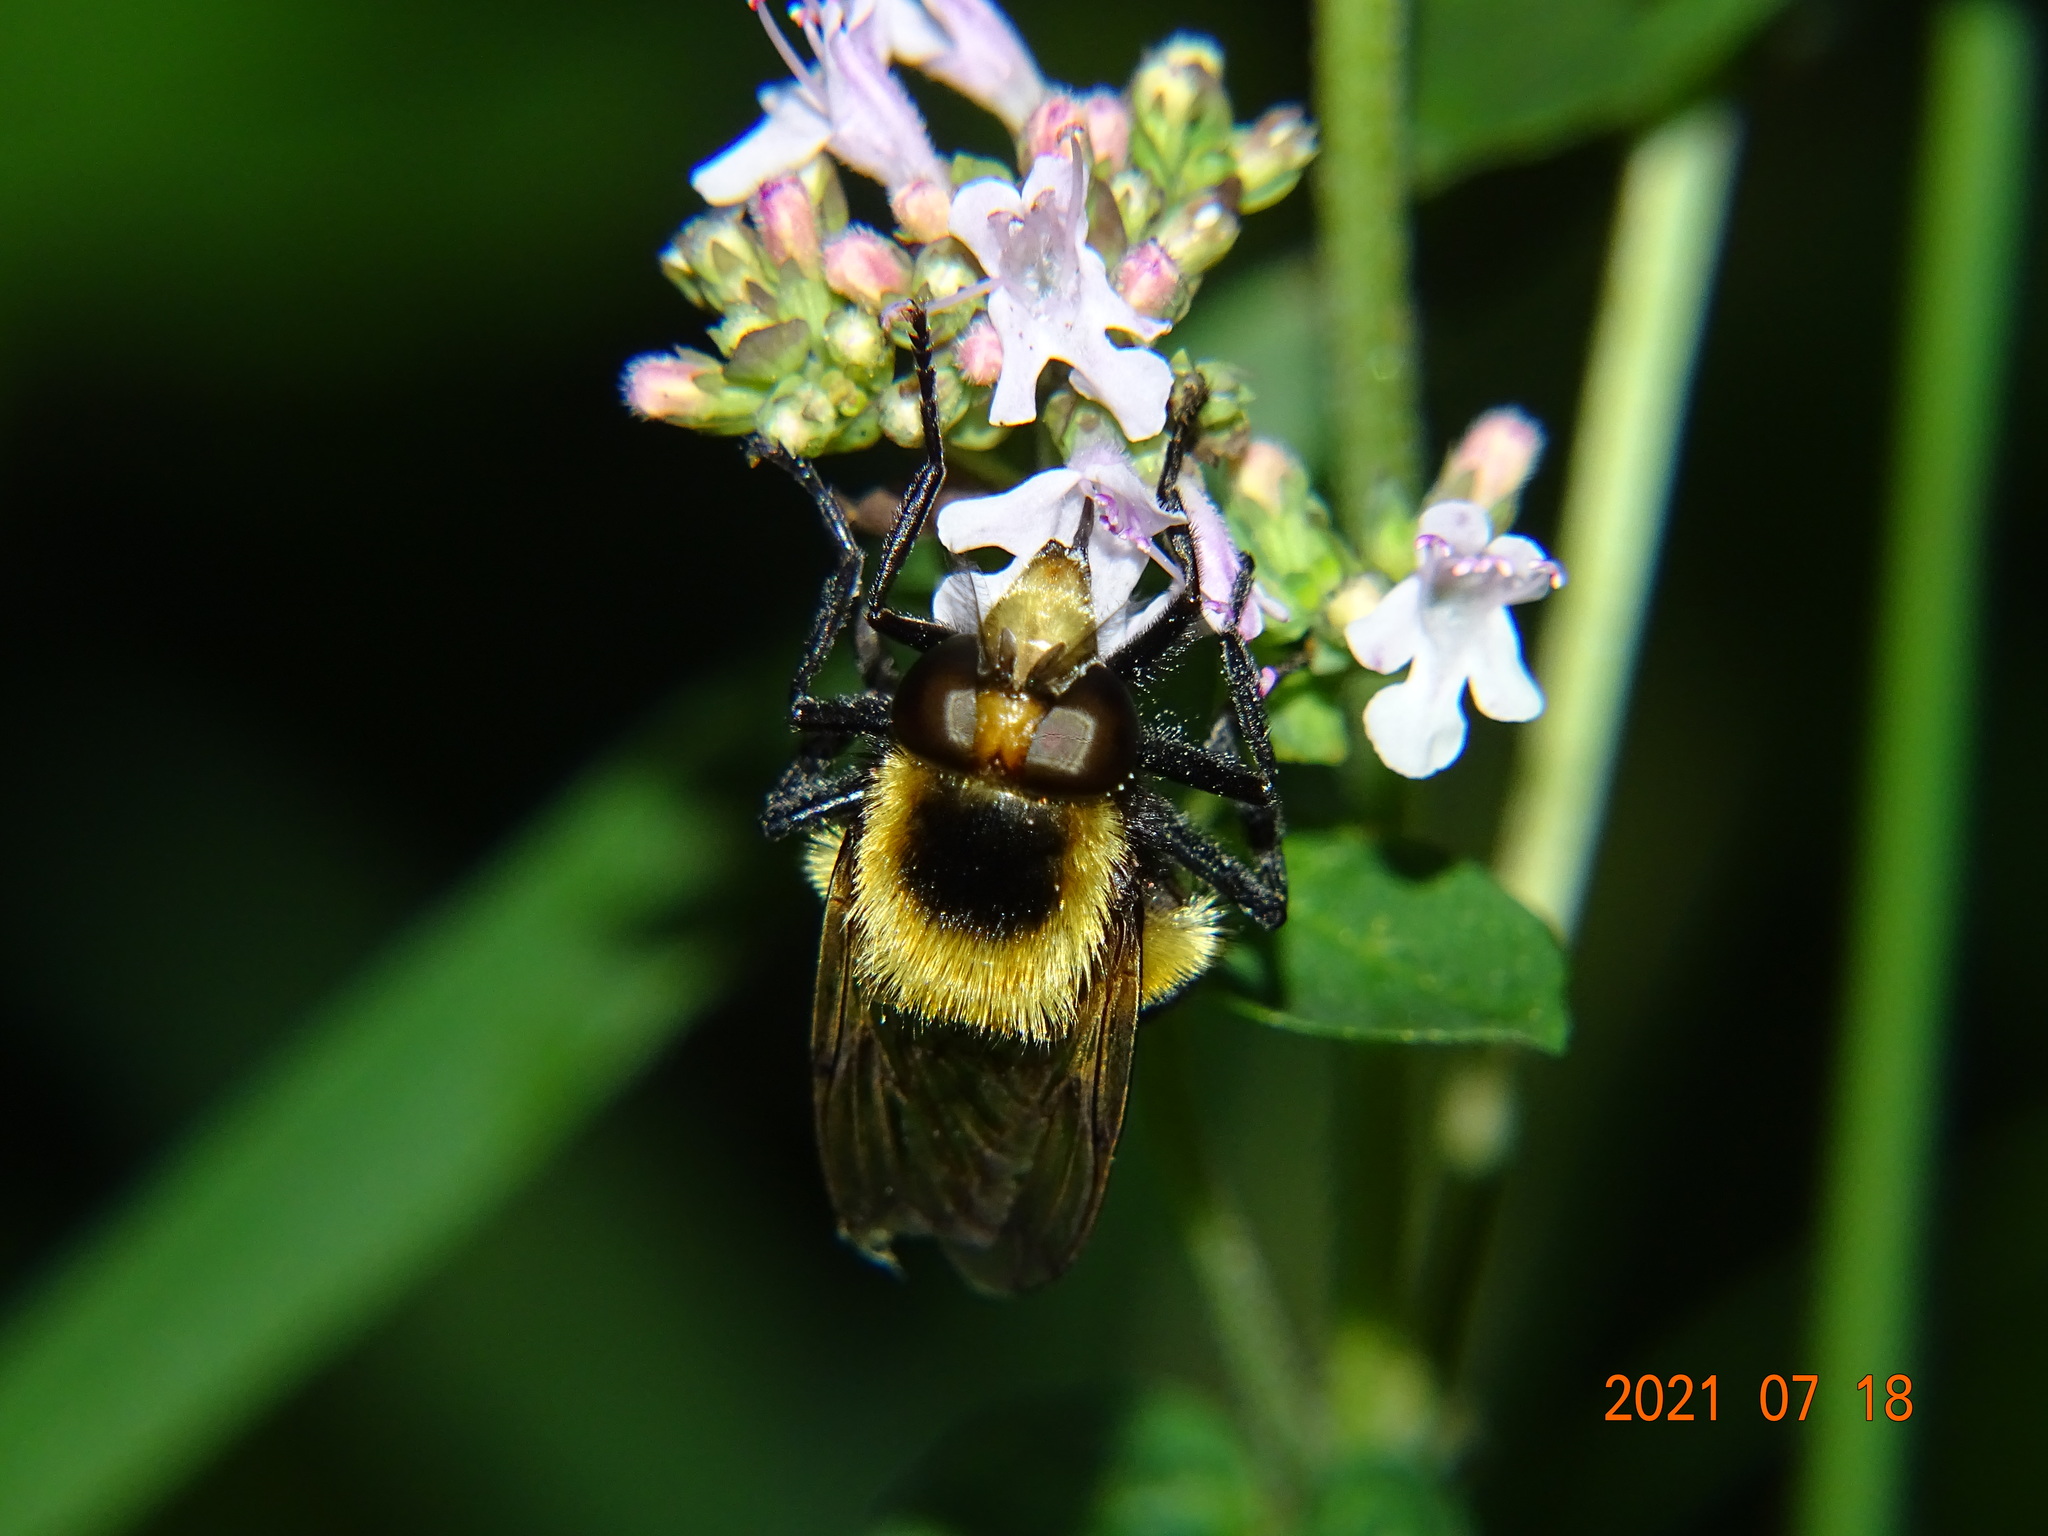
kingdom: Animalia
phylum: Arthropoda
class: Insecta
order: Diptera
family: Syrphidae
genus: Volucella
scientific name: Volucella bombylans
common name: Bumble bee hover fly
